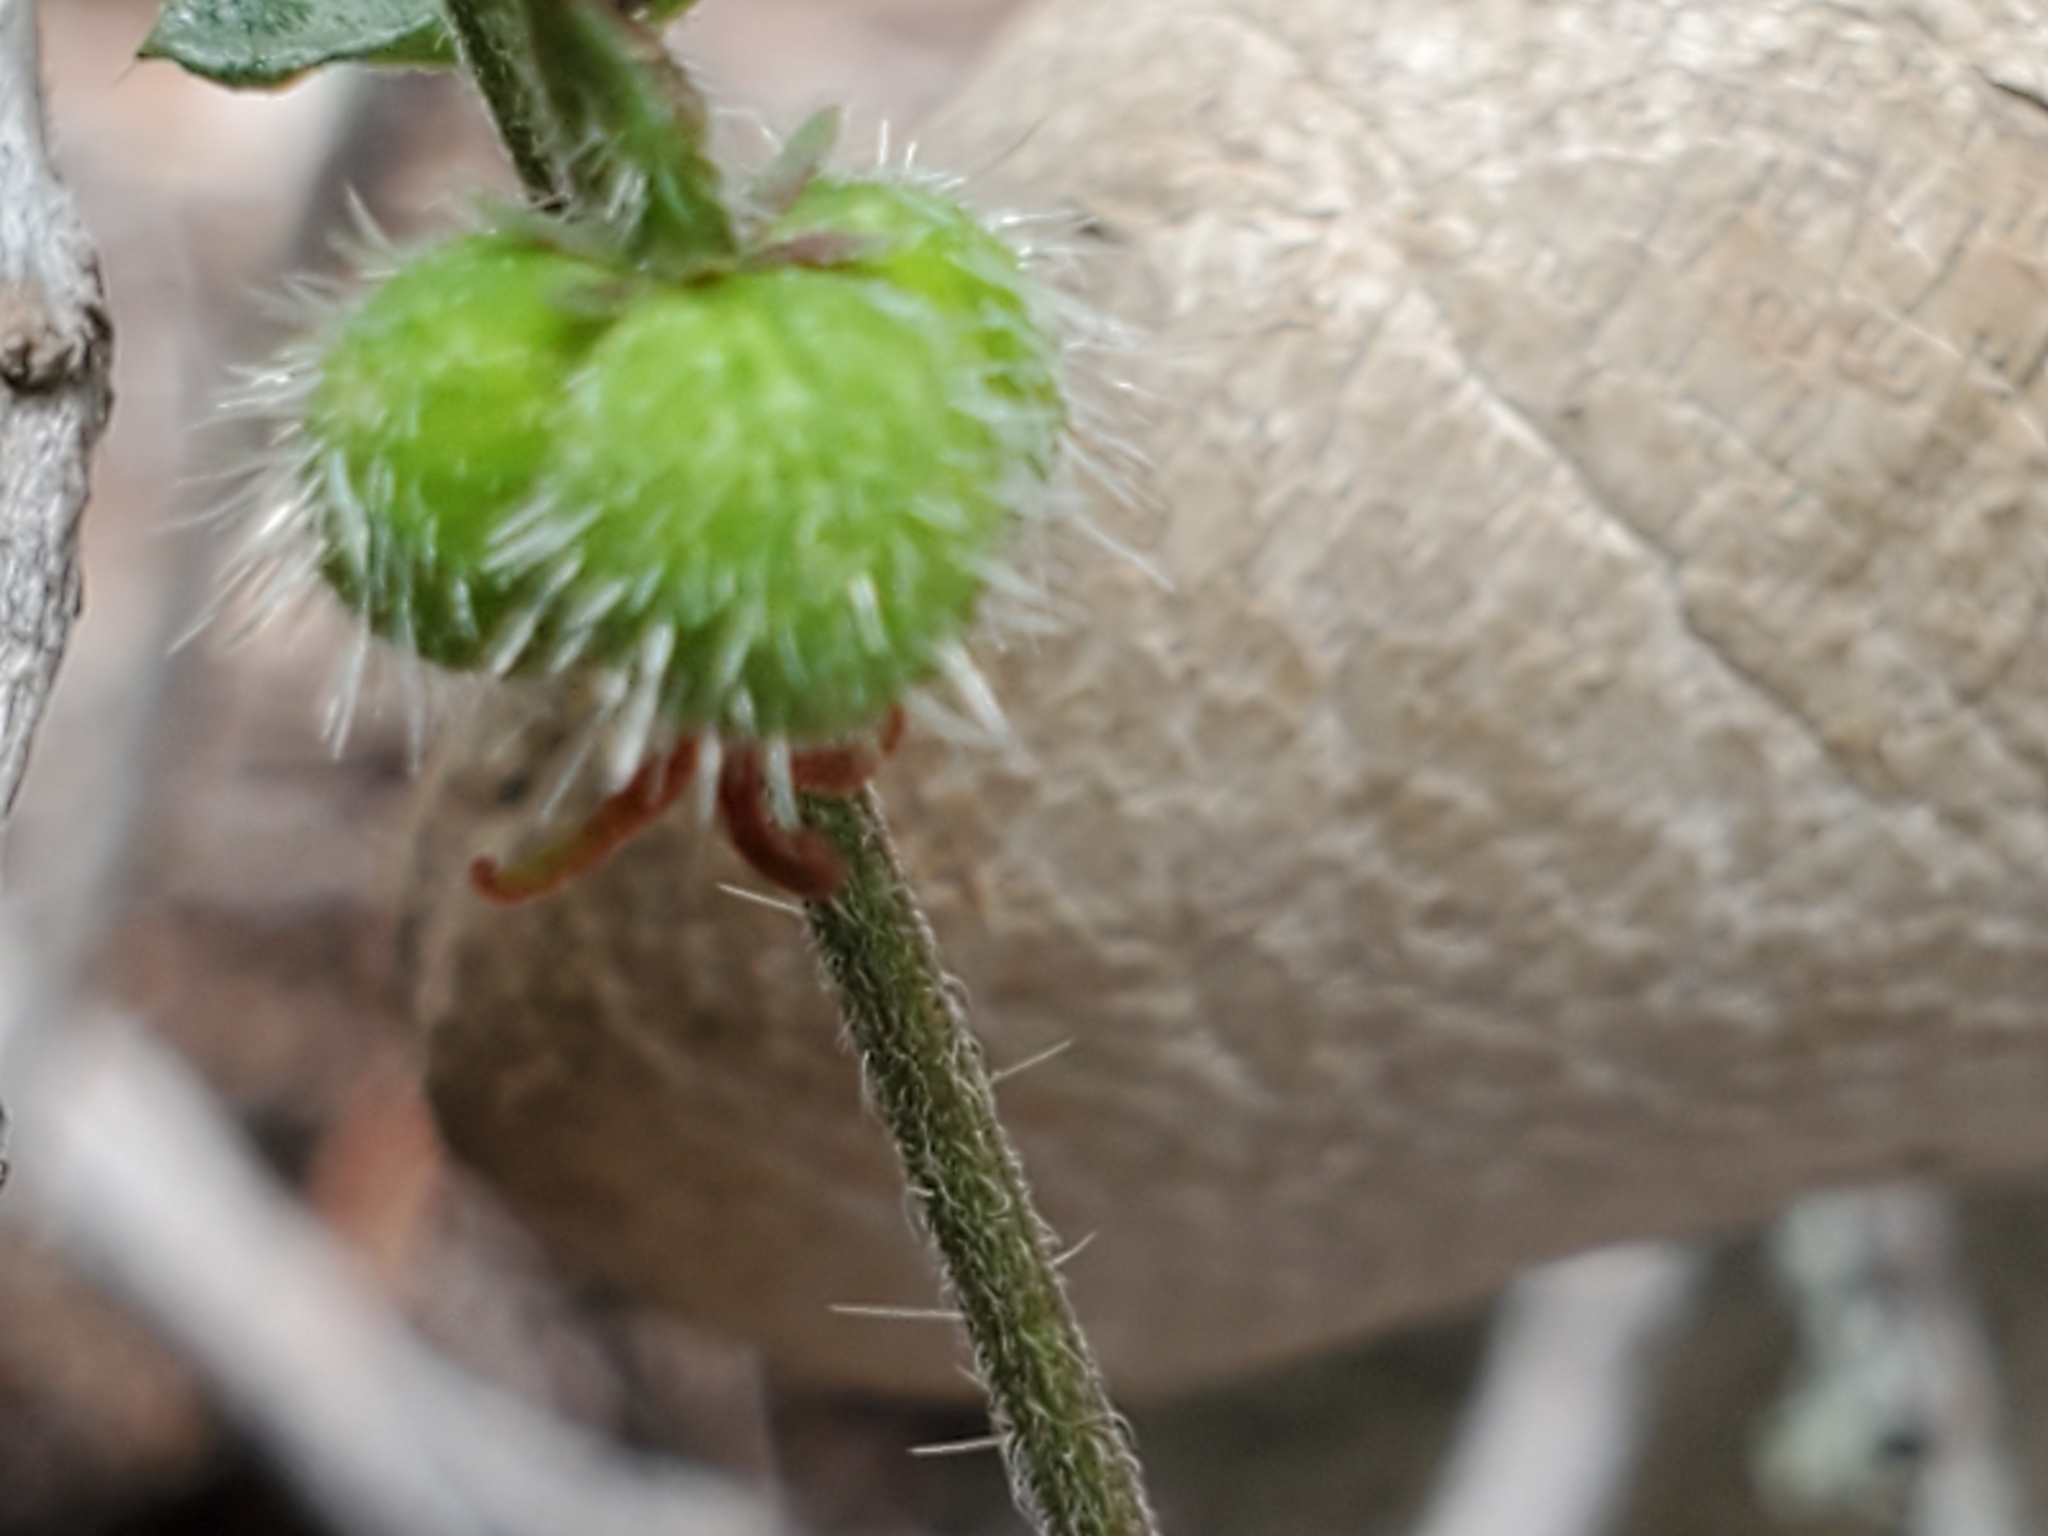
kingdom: Plantae
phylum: Tracheophyta
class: Magnoliopsida
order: Malpighiales
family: Euphorbiaceae
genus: Tragia
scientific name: Tragia ramosa
